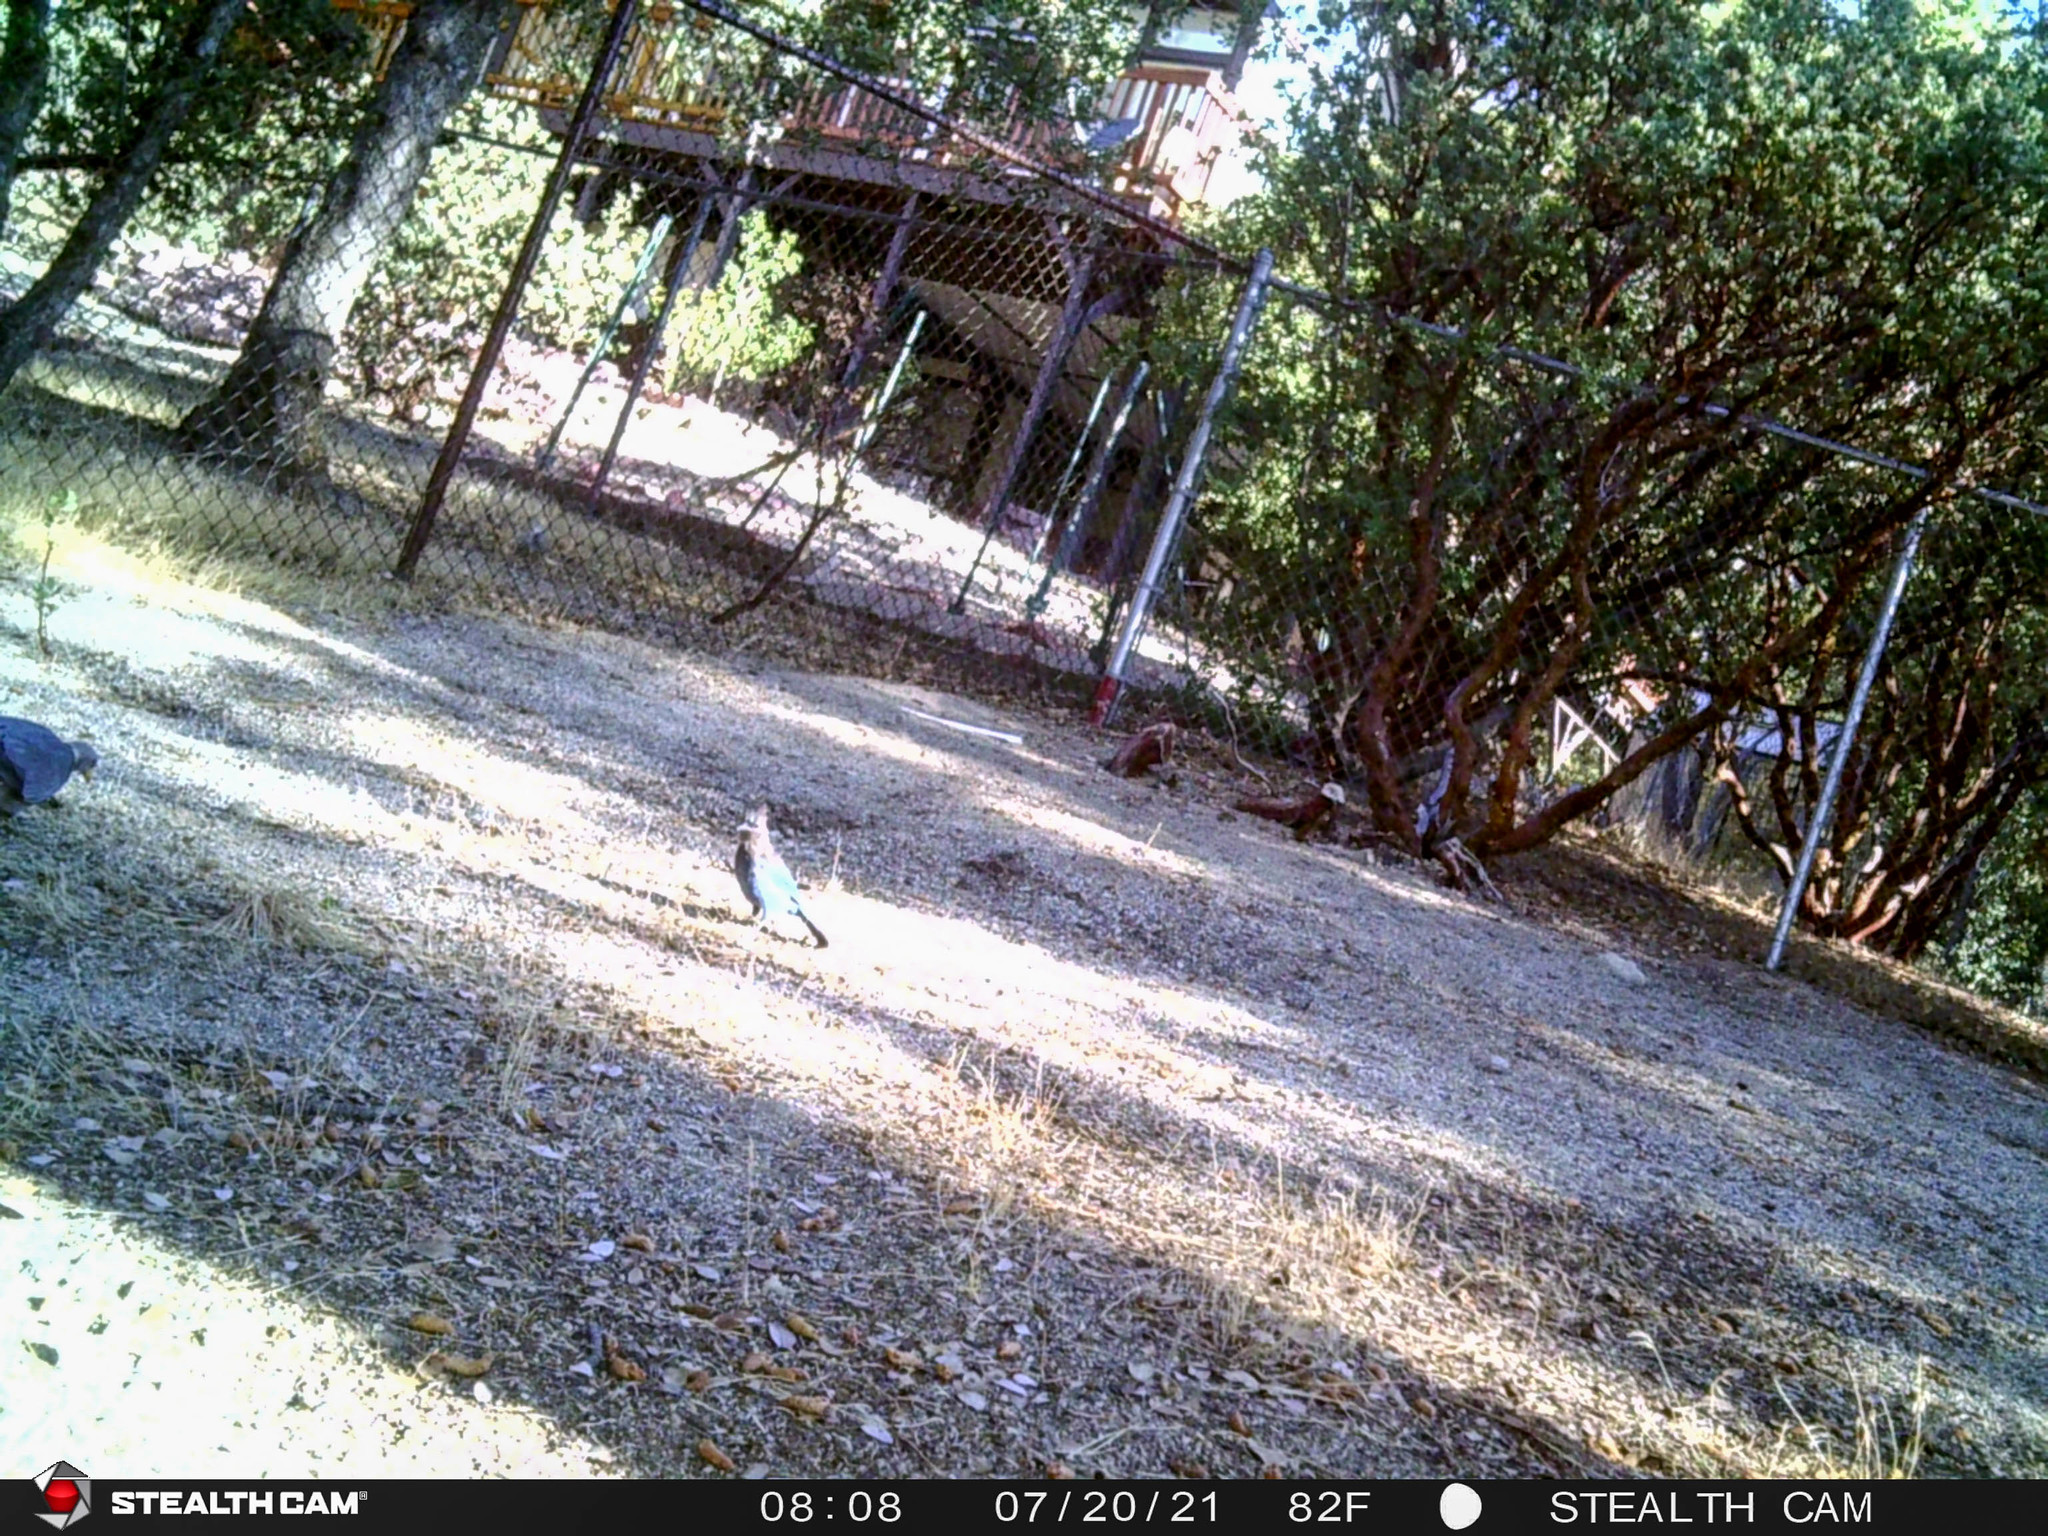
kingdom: Animalia
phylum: Chordata
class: Aves
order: Columbiformes
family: Columbidae
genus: Patagioenas
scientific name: Patagioenas fasciata
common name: Band-tailed pigeon
